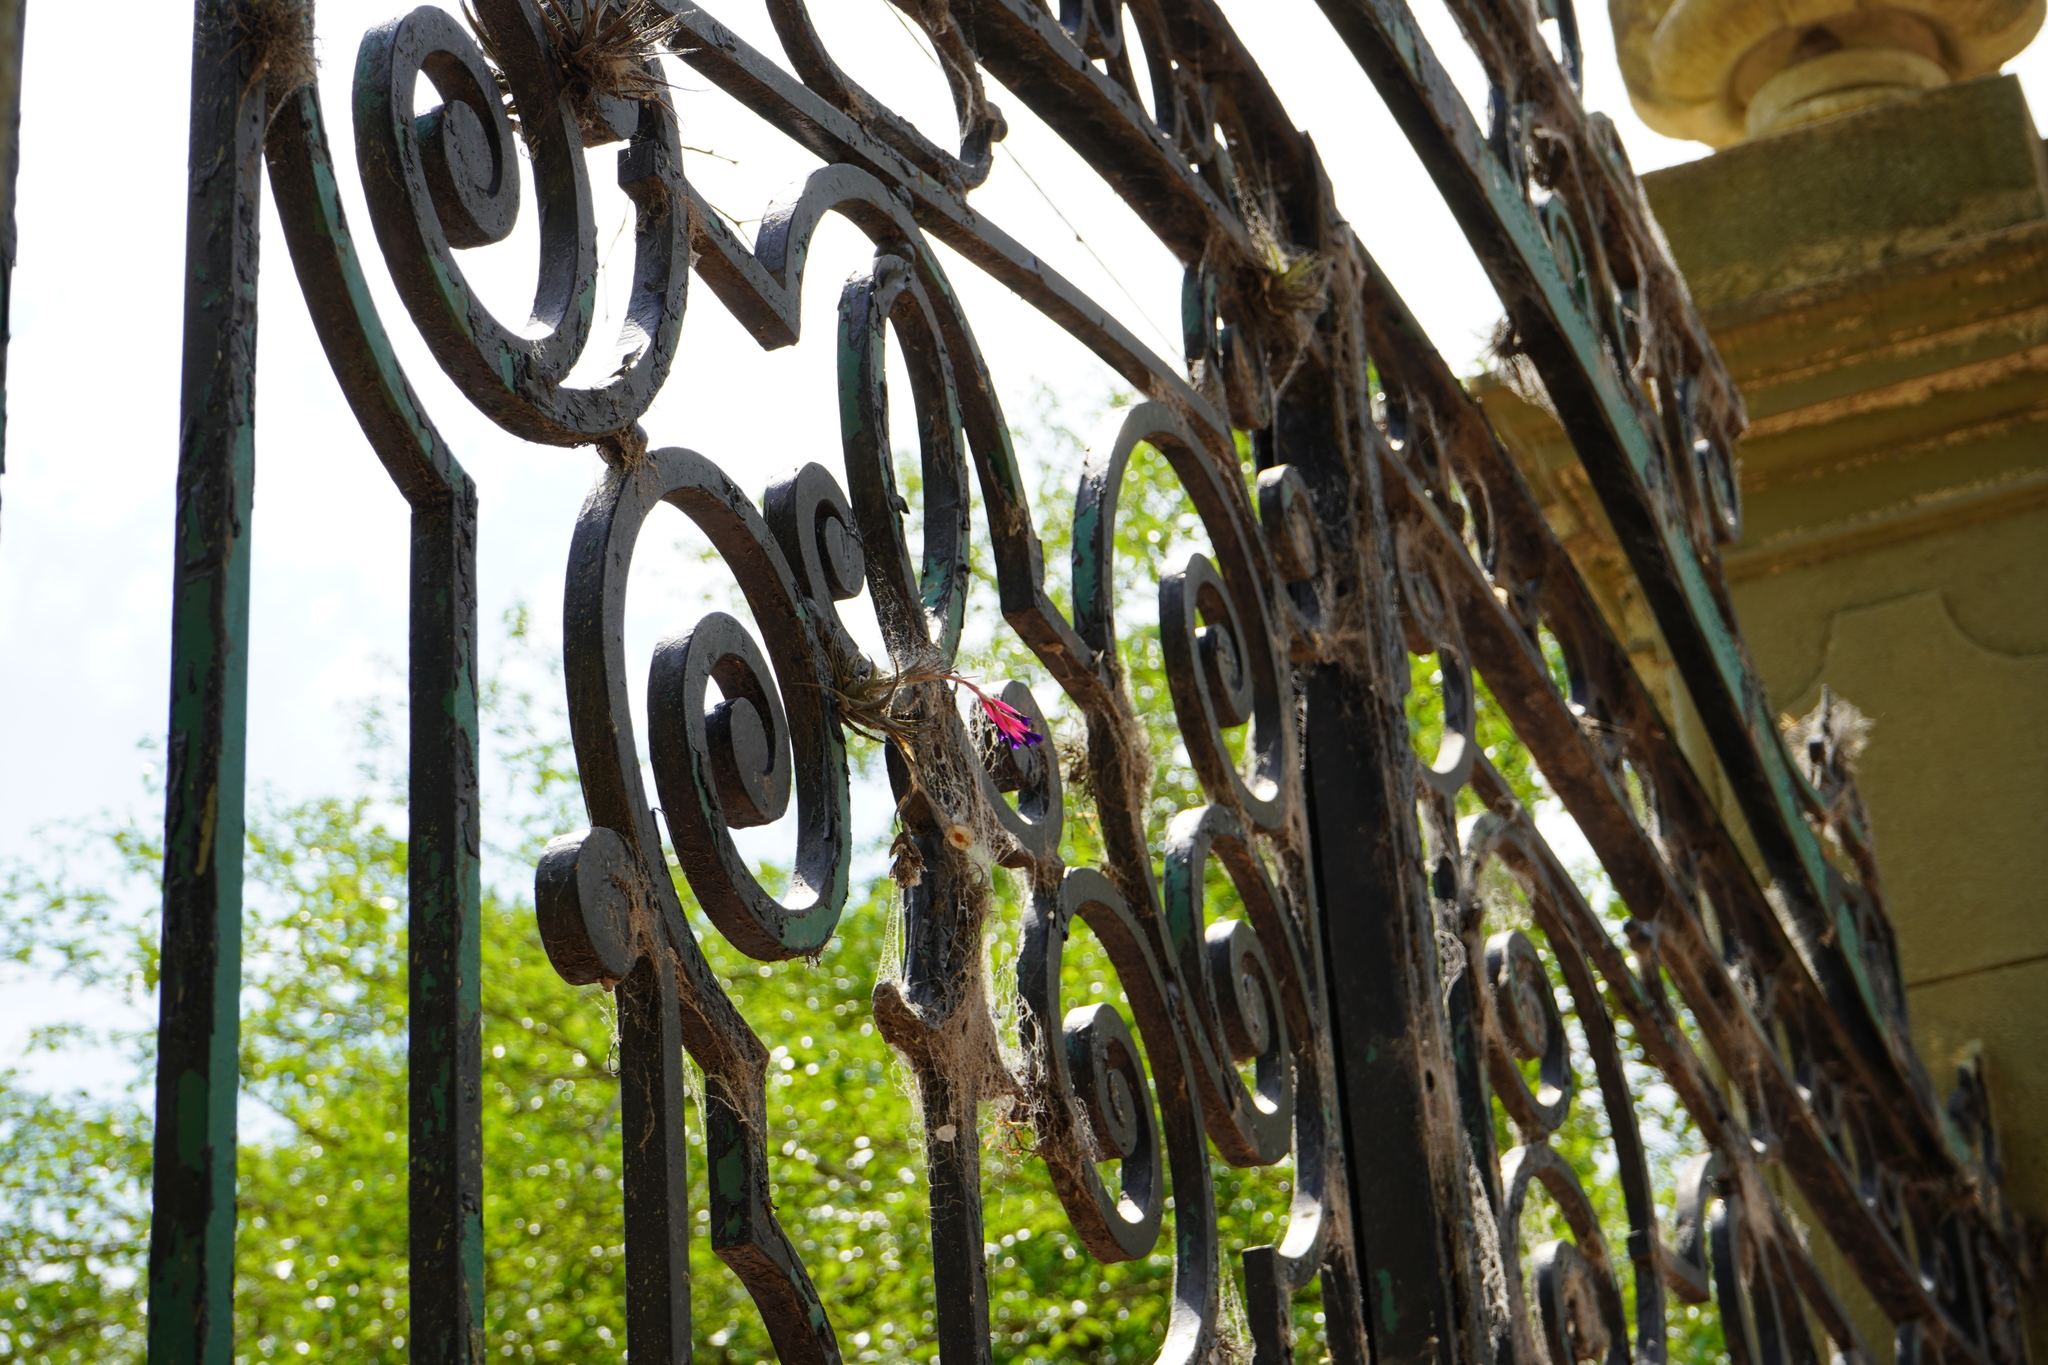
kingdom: Plantae
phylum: Tracheophyta
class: Liliopsida
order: Poales
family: Bromeliaceae
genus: Tillandsia
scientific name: Tillandsia aeranthos
